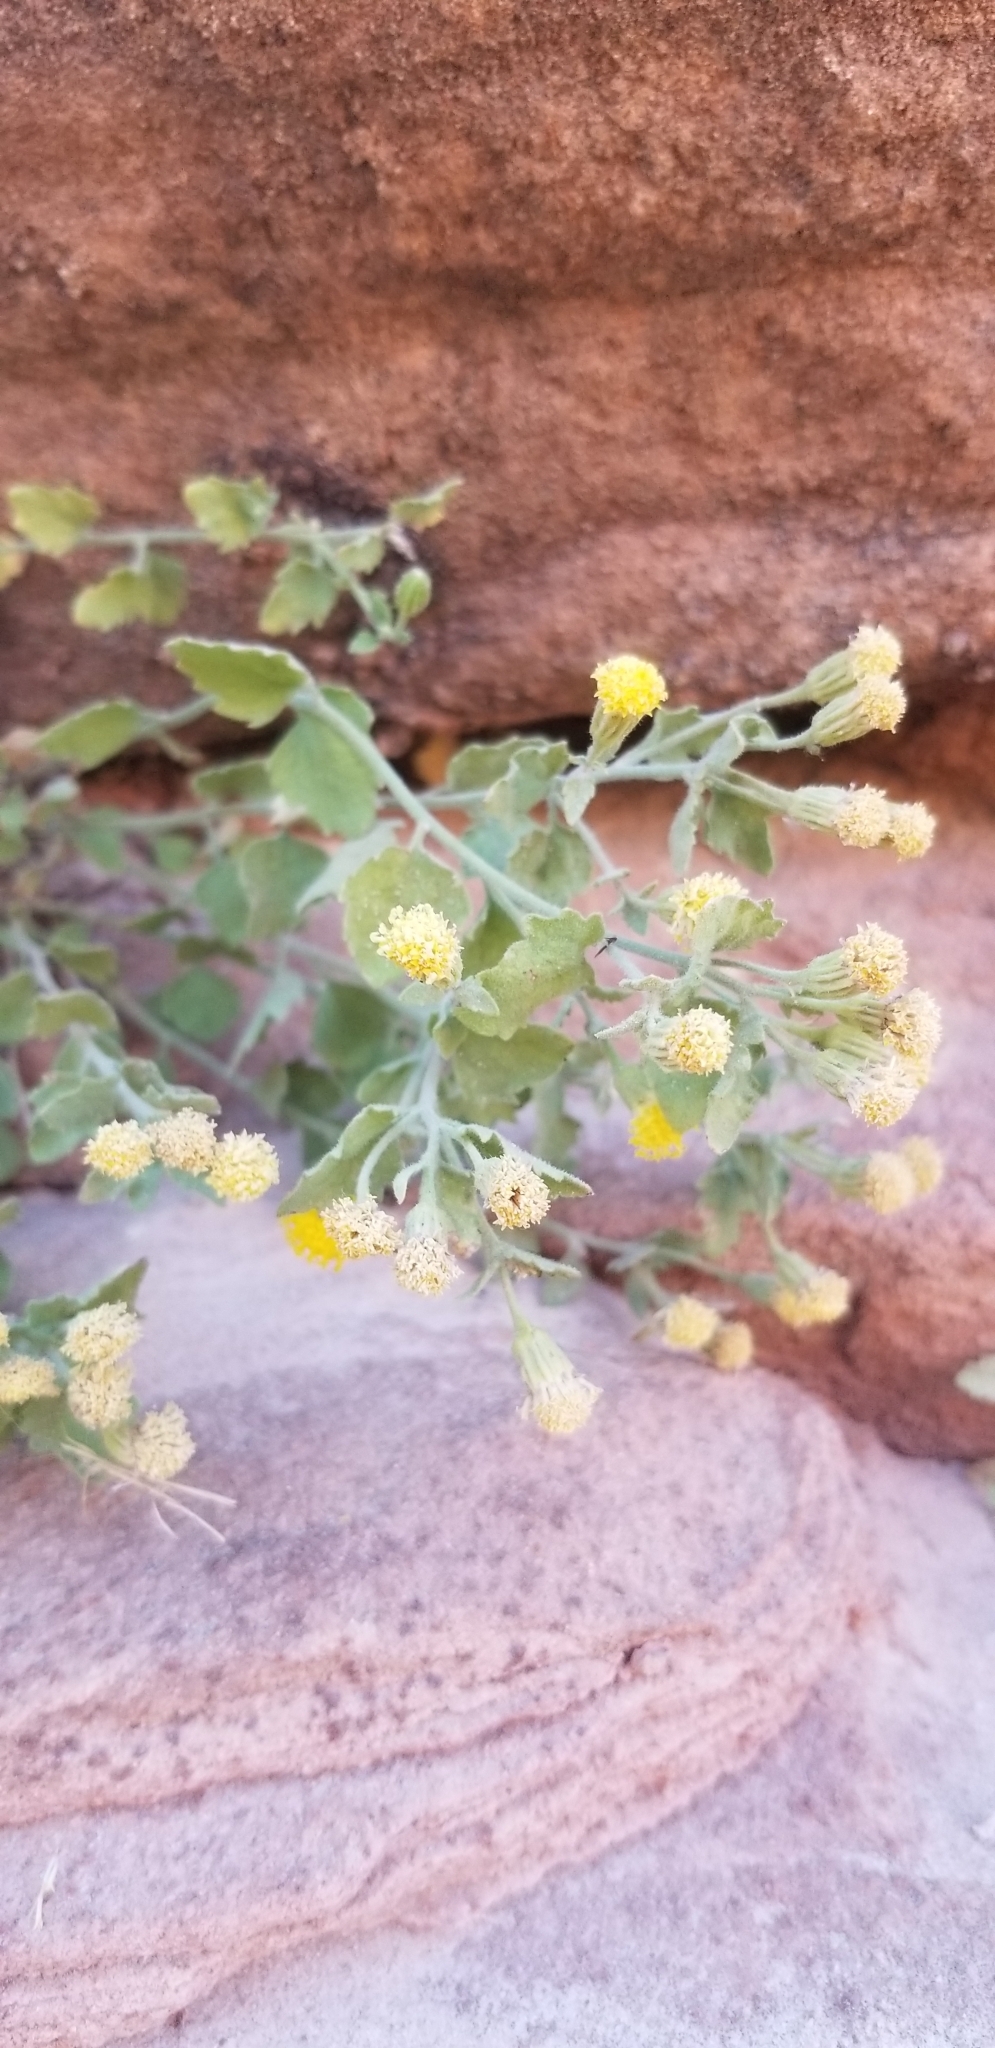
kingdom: Plantae
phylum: Tracheophyta
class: Magnoliopsida
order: Asterales
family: Asteraceae
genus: Laphamia
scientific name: Laphamia sanchezii
